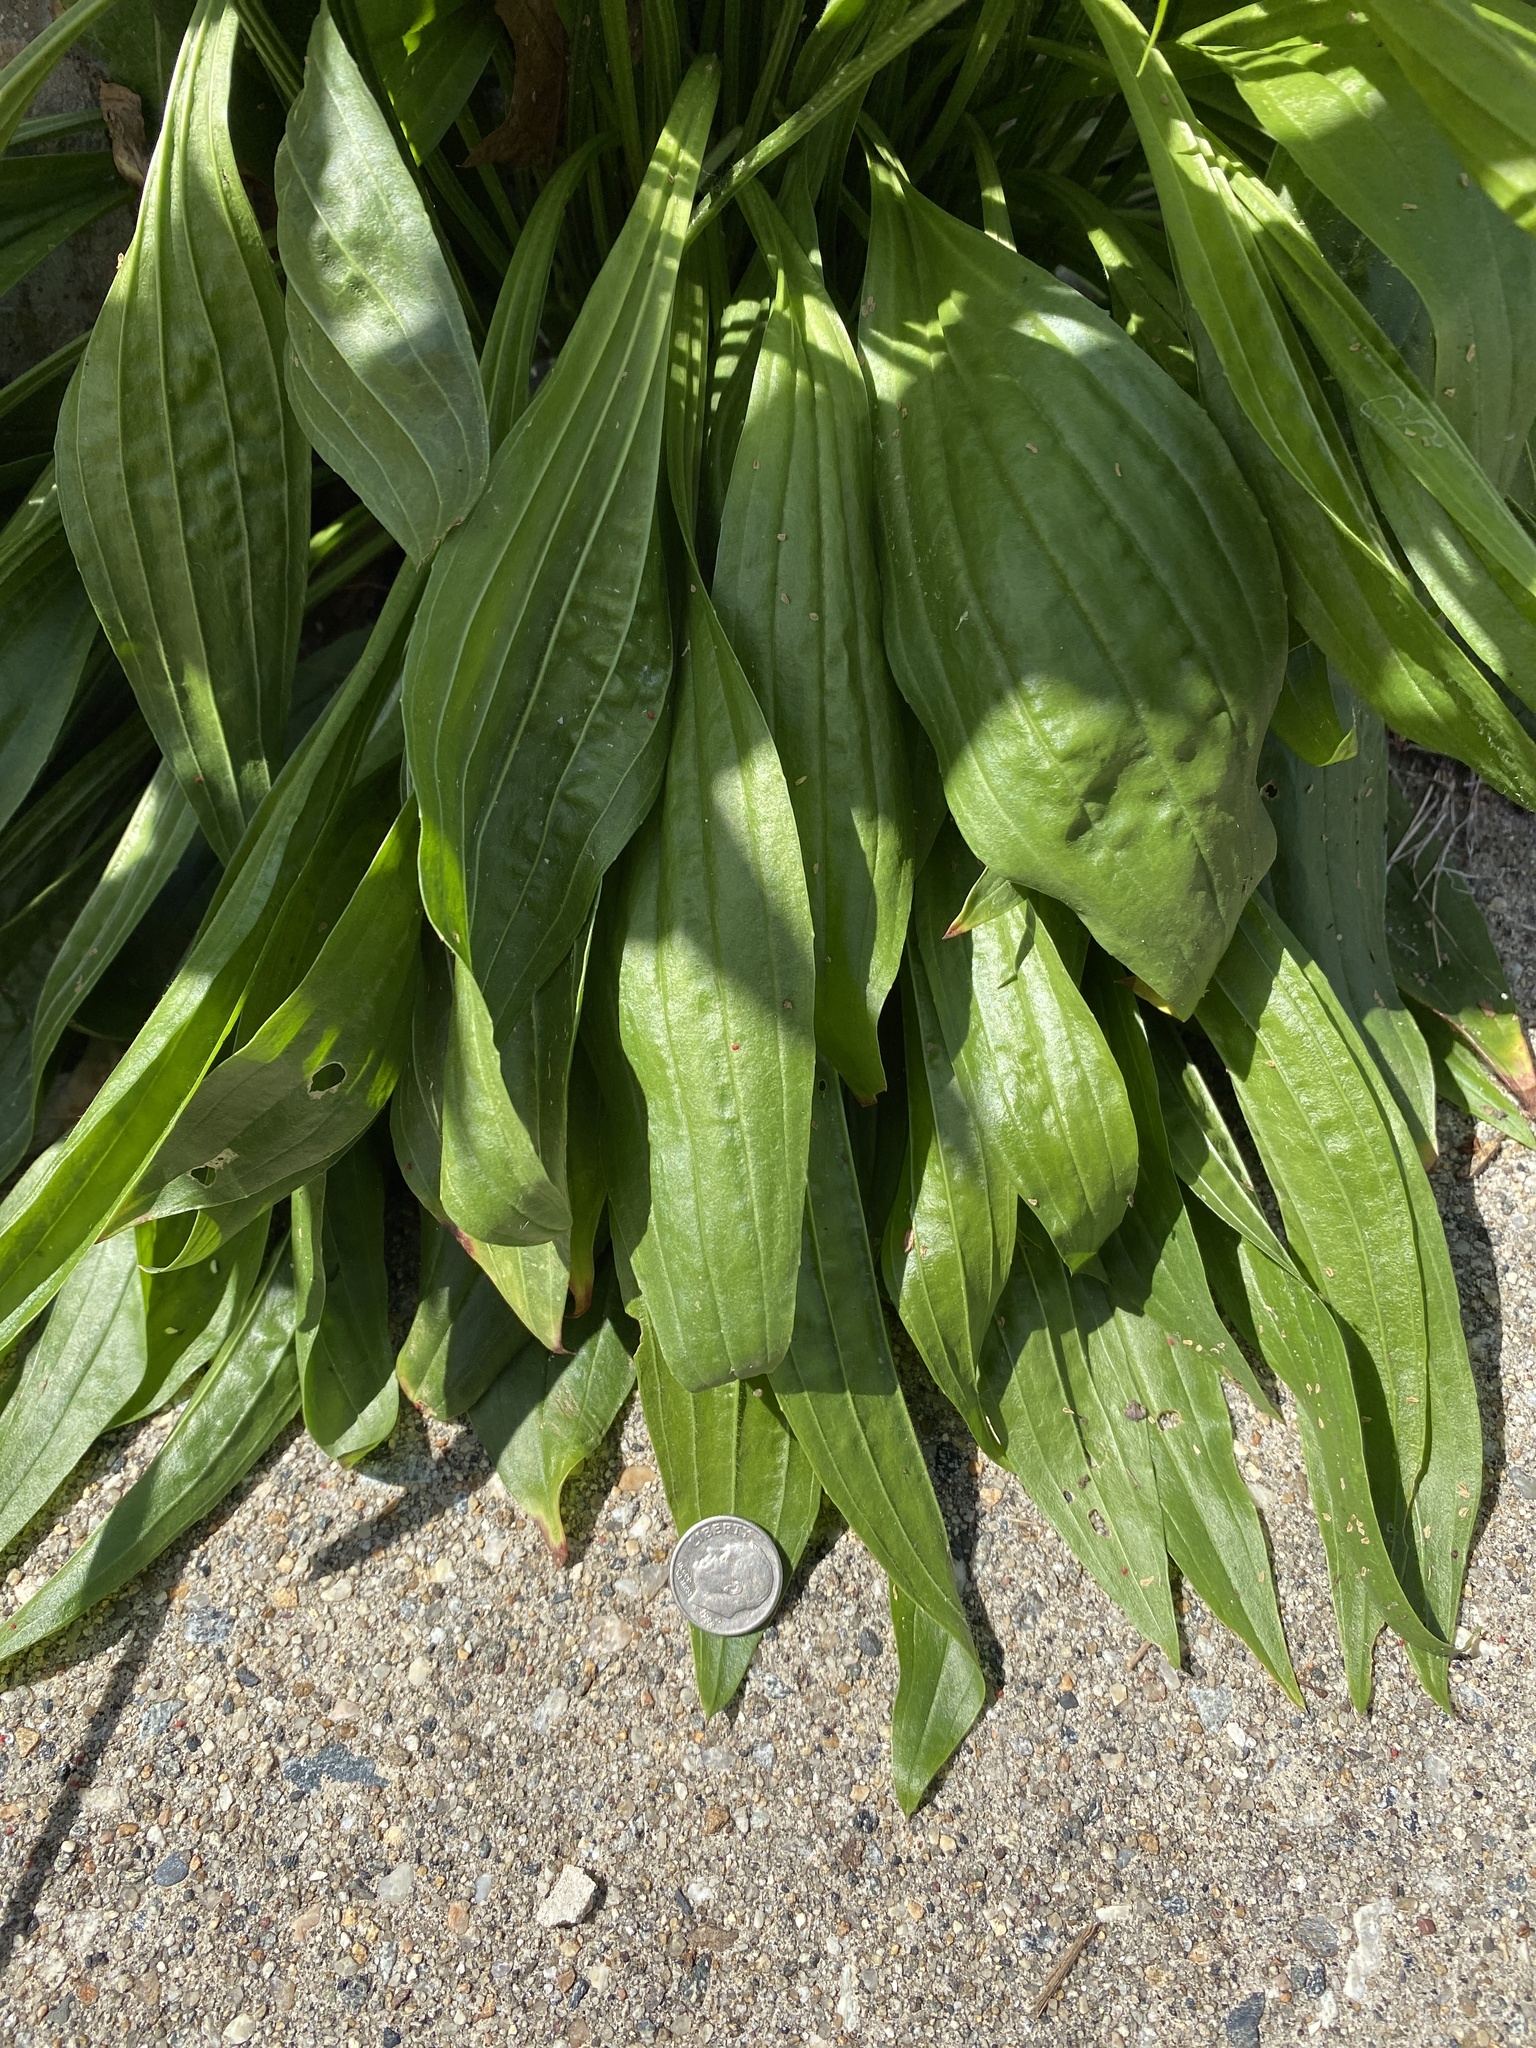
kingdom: Plantae
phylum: Tracheophyta
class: Magnoliopsida
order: Lamiales
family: Plantaginaceae
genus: Plantago
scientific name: Plantago lanceolata
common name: Ribwort plantain
